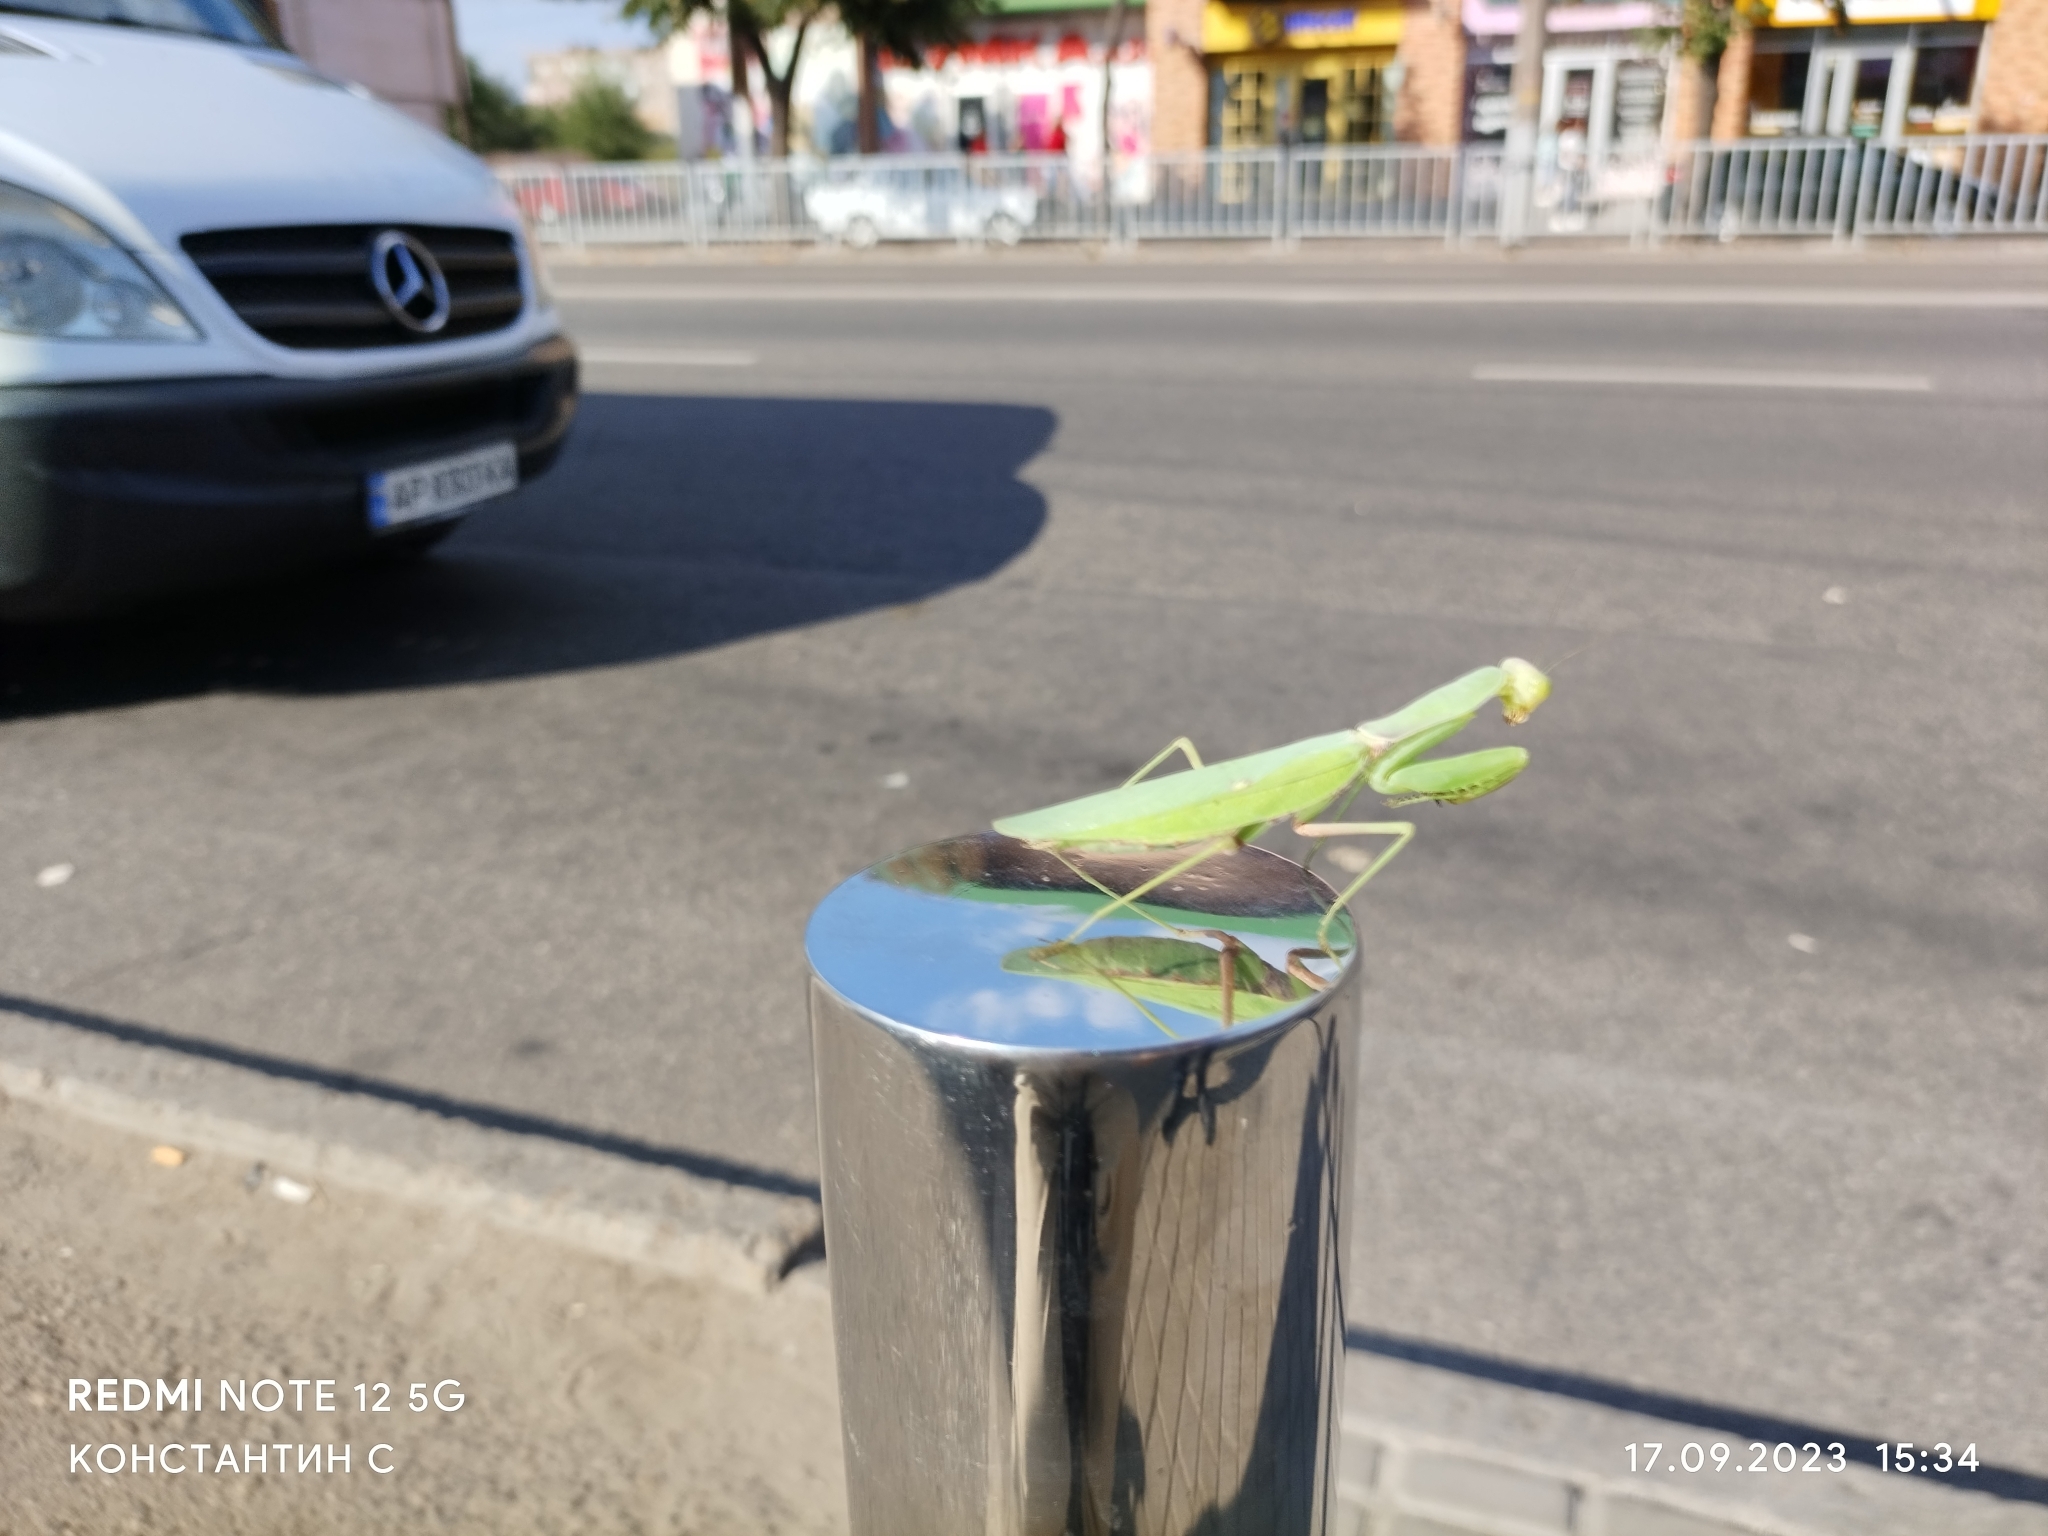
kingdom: Animalia
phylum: Arthropoda
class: Insecta
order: Mantodea
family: Mantidae
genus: Hierodula
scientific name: Hierodula transcaucasica
